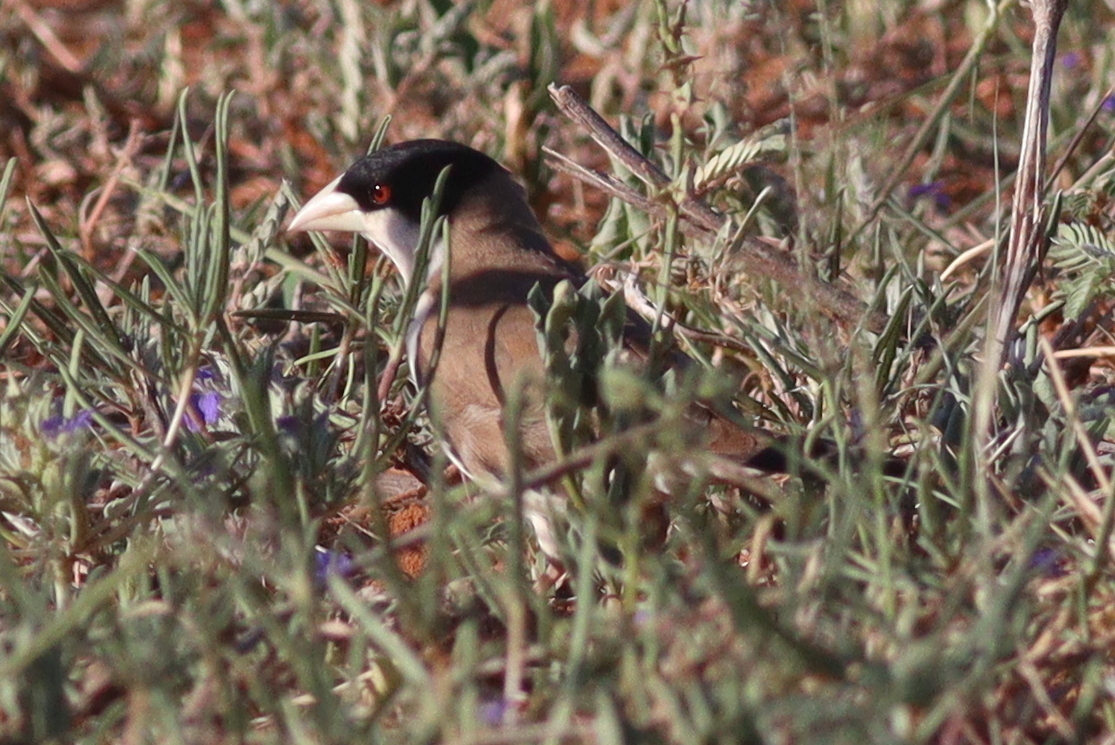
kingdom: Animalia
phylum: Chordata
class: Aves
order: Passeriformes
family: Passeridae
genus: Pseudonigrita
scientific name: Pseudonigrita cabanisi
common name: Black-capped social weaver
